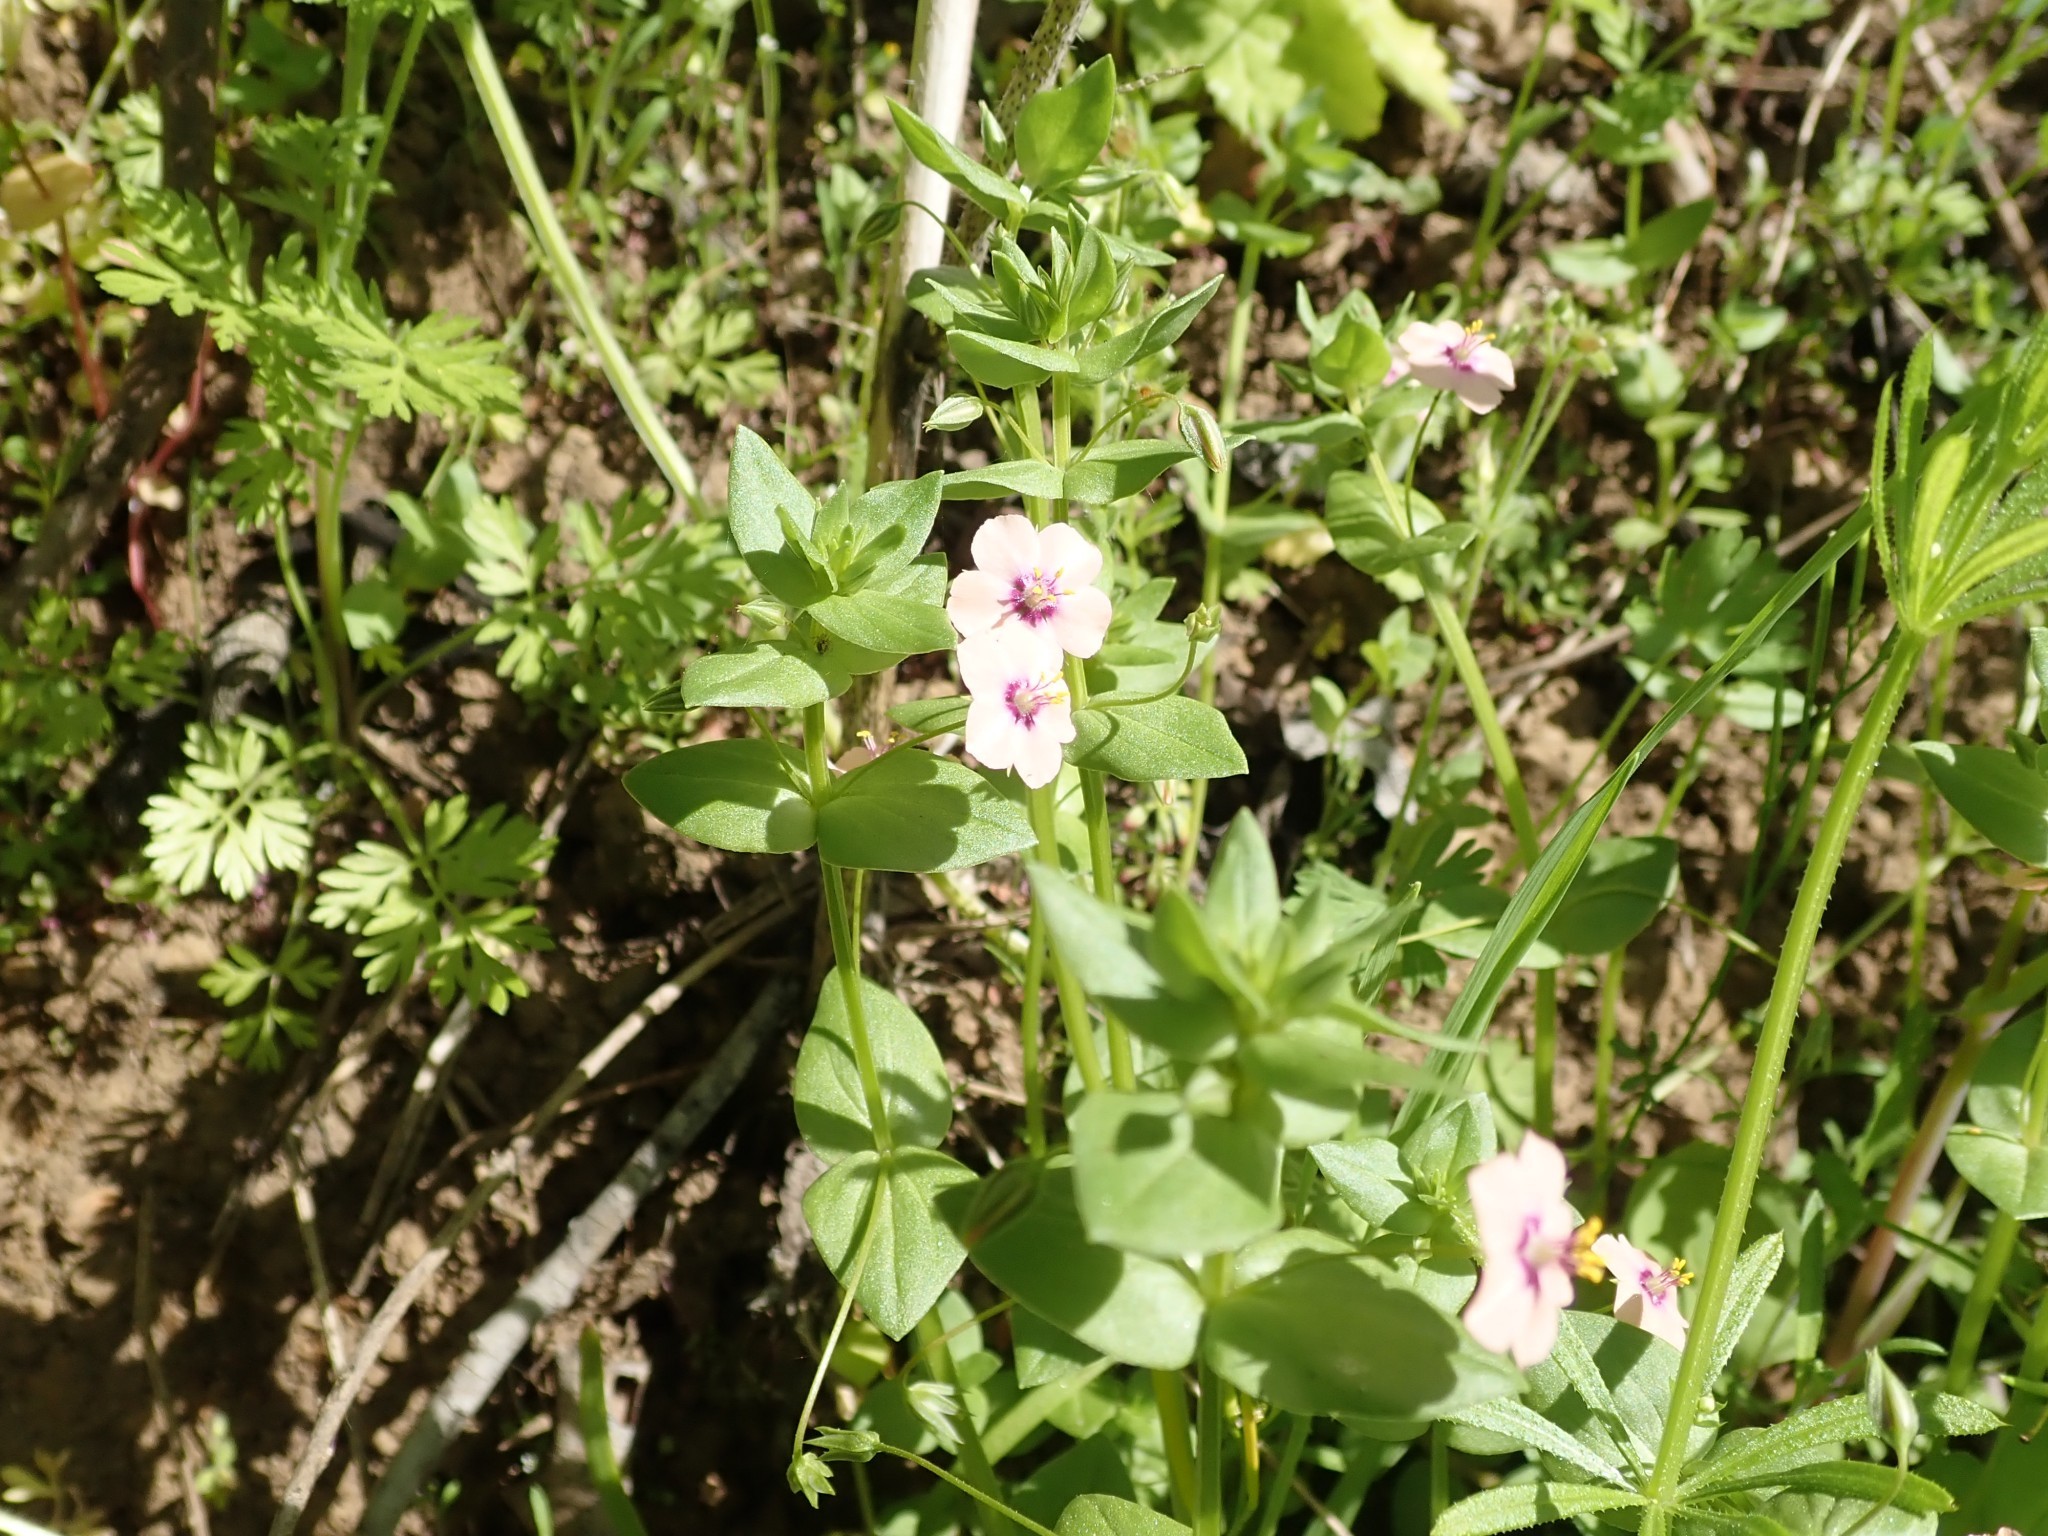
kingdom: Plantae
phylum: Tracheophyta
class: Magnoliopsida
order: Ericales
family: Primulaceae
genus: Lysimachia
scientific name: Lysimachia arvensis
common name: Scarlet pimpernel
